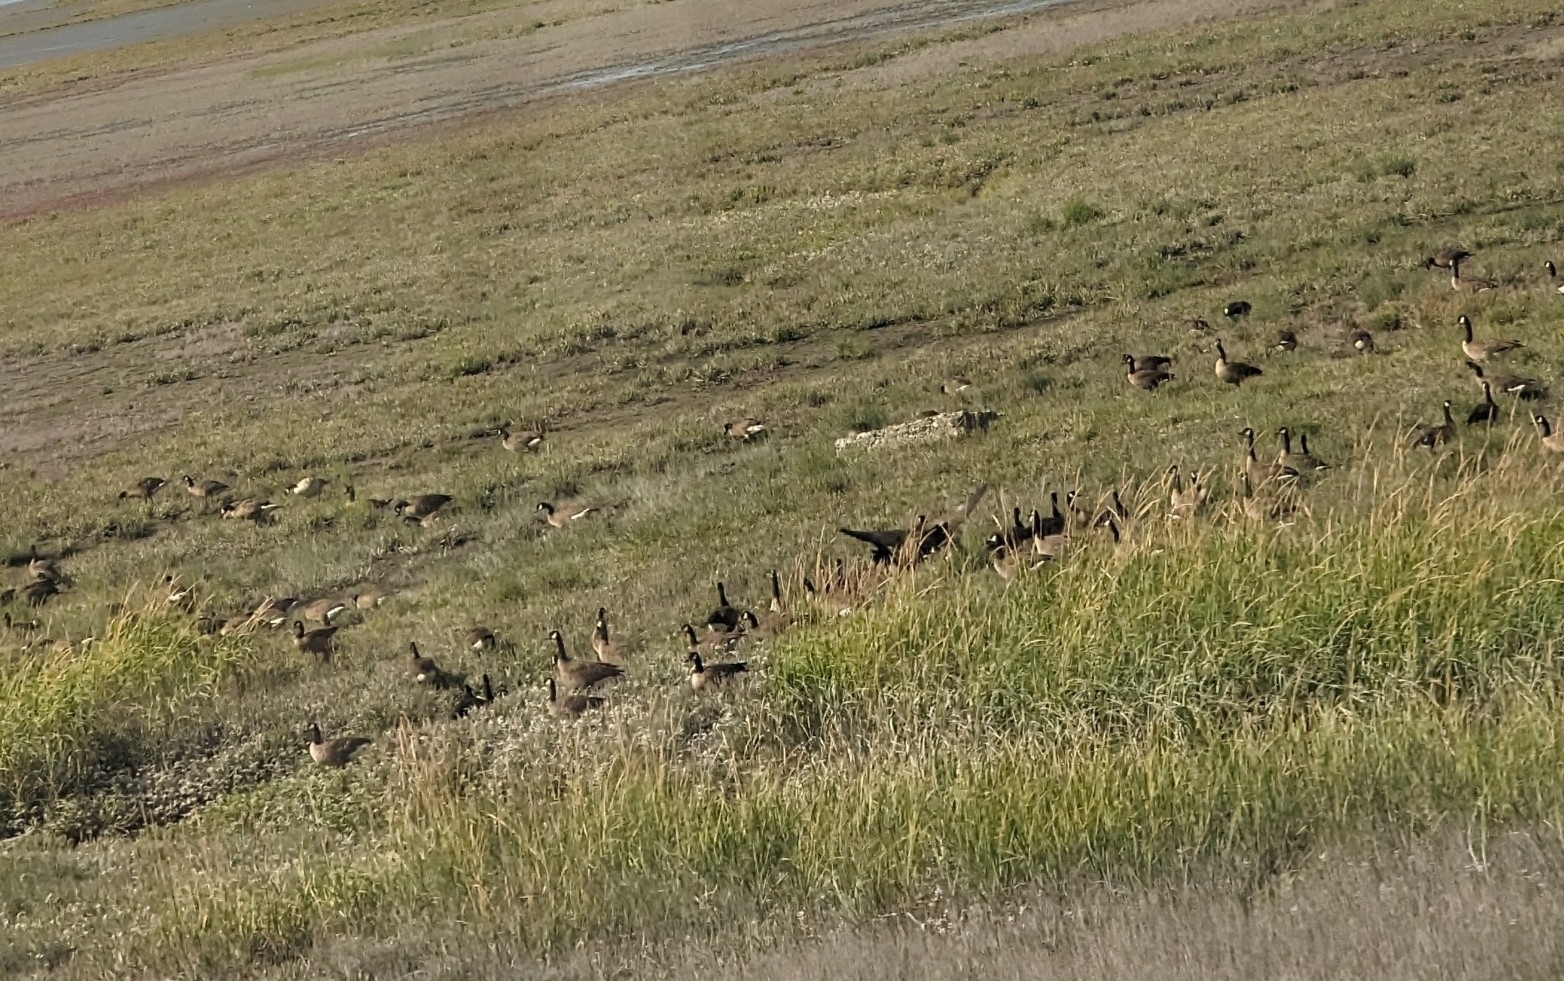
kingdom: Animalia
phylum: Chordata
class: Aves
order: Anseriformes
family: Anatidae
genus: Branta
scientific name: Branta canadensis
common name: Canada goose
